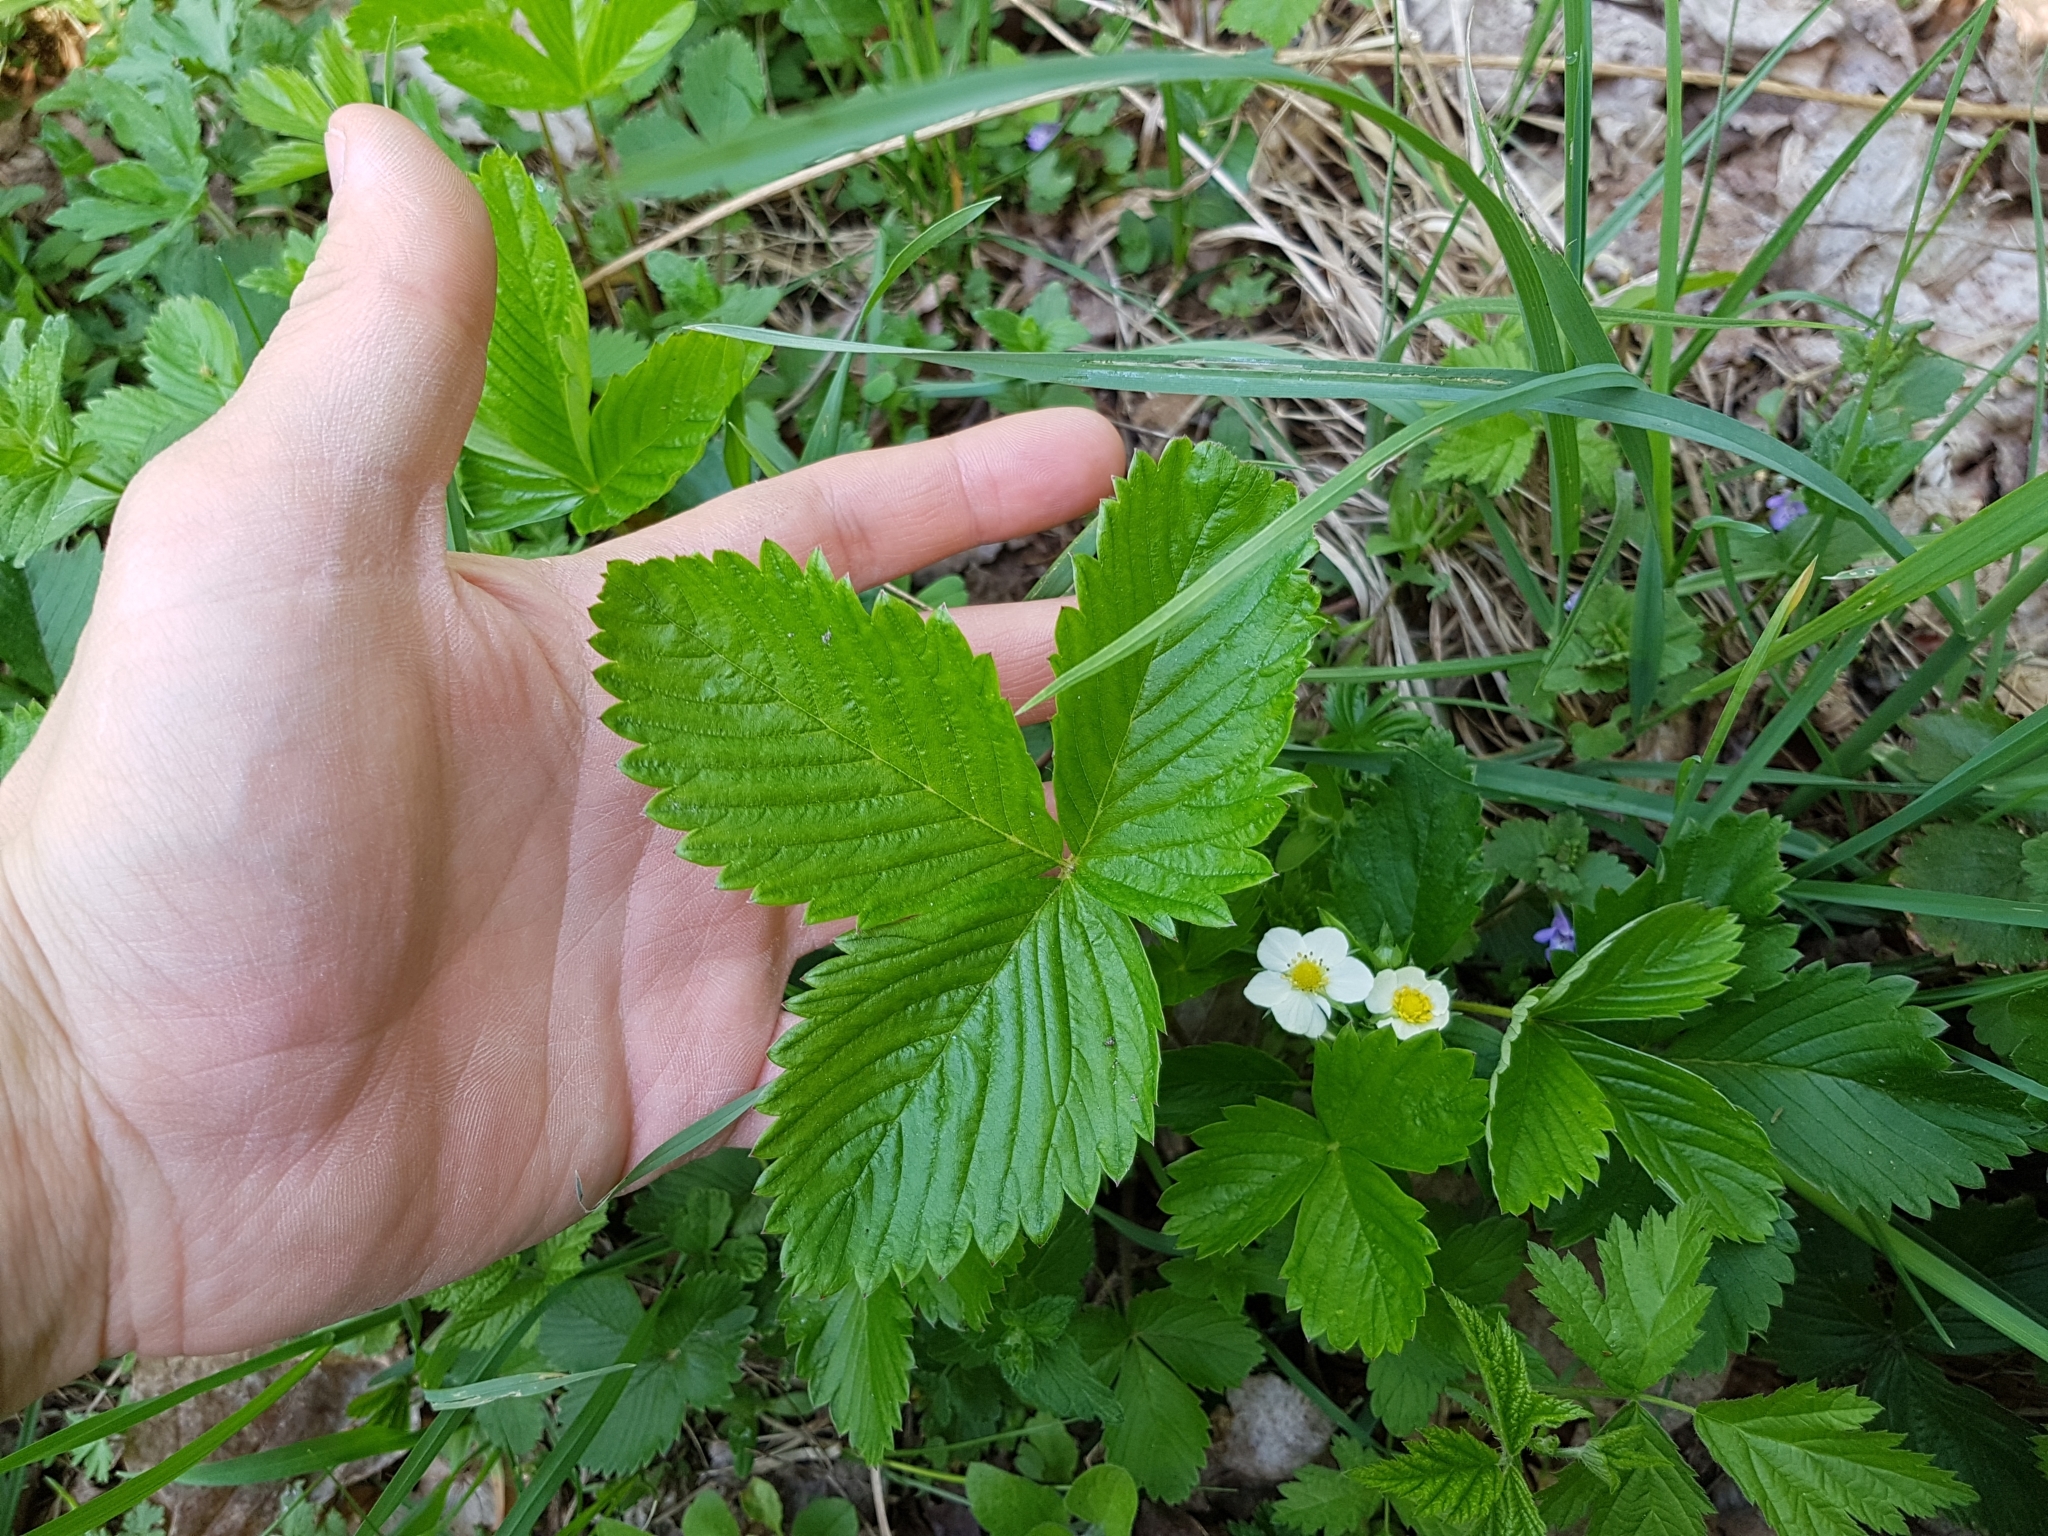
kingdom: Plantae
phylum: Tracheophyta
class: Magnoliopsida
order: Rosales
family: Rosaceae
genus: Fragaria
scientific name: Fragaria vesca
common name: Wild strawberry
